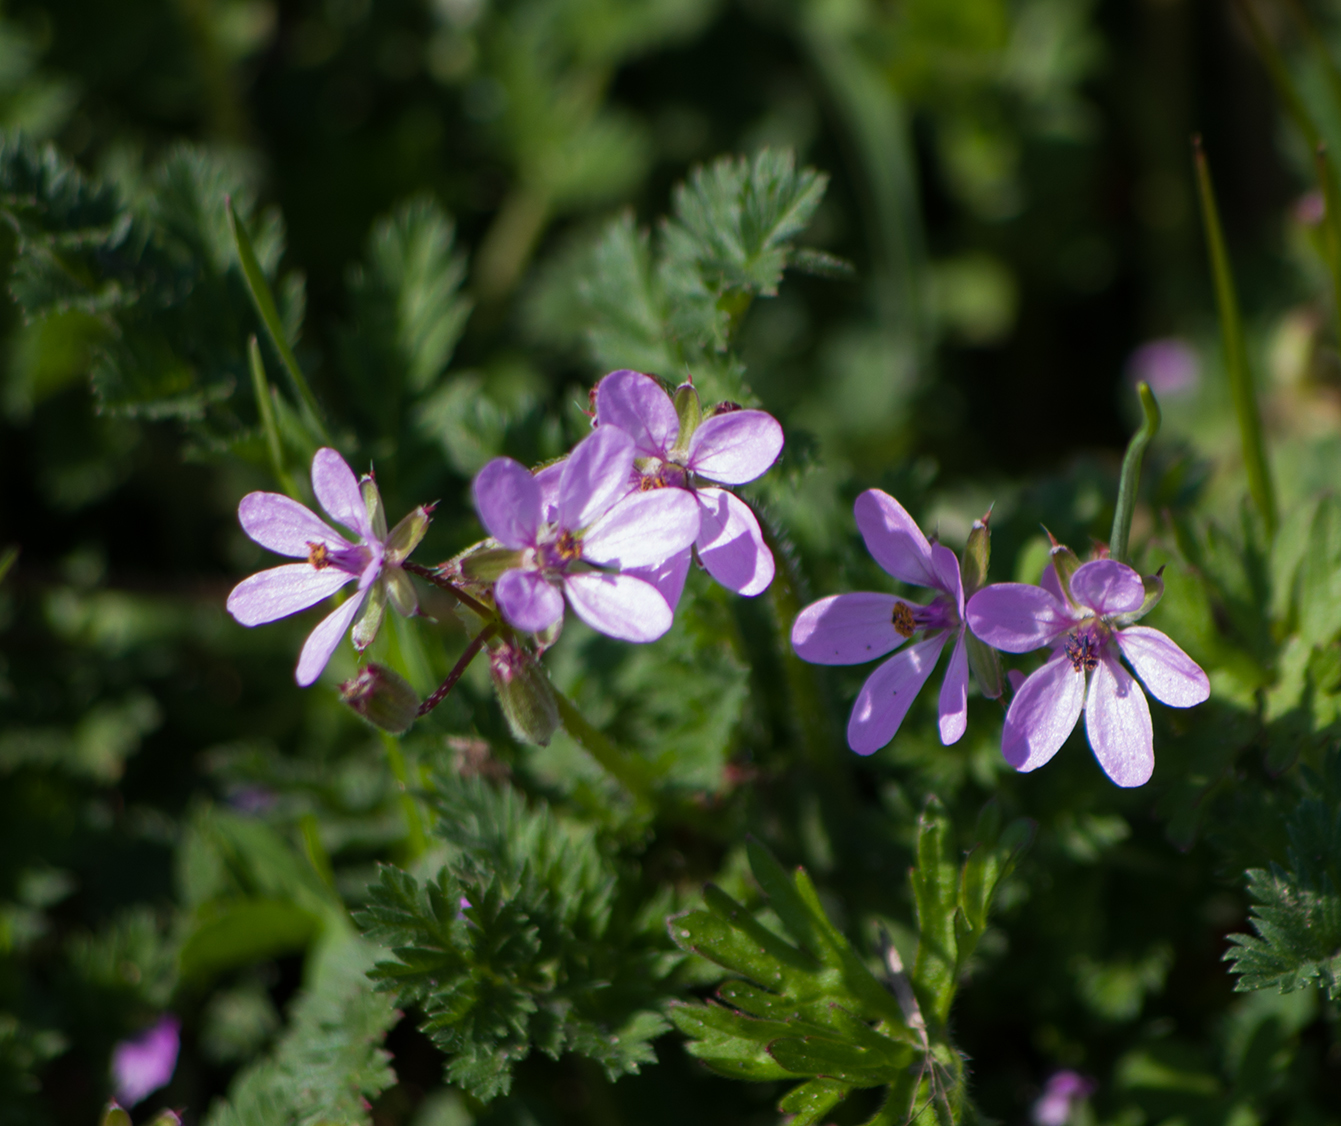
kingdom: Plantae
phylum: Tracheophyta
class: Magnoliopsida
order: Geraniales
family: Geraniaceae
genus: Erodium
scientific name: Erodium cicutarium
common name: Common stork's-bill
